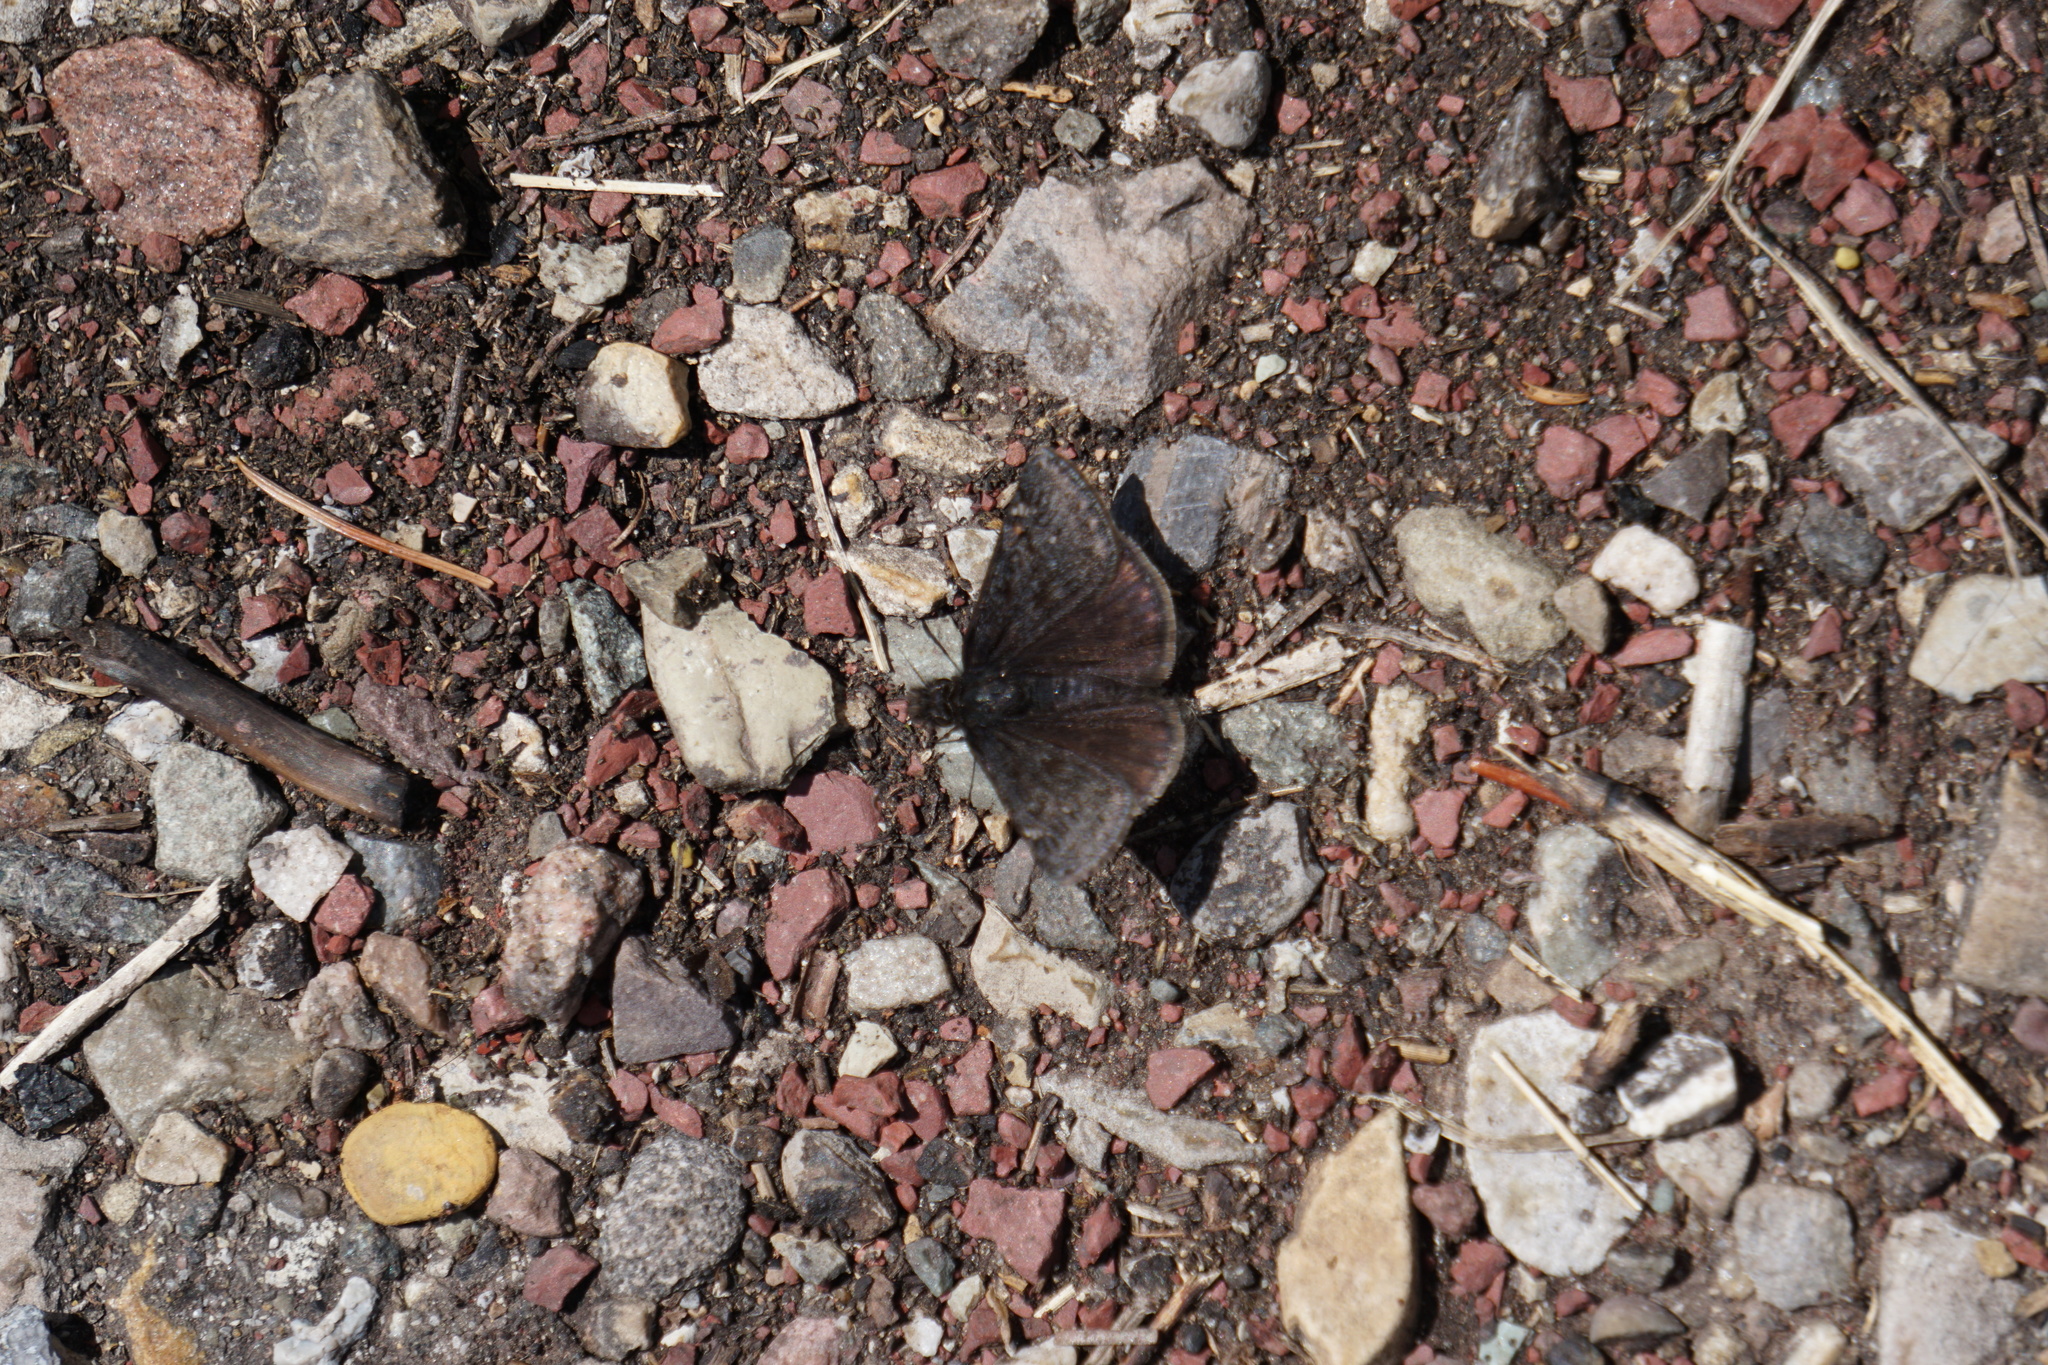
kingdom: Animalia
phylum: Arthropoda
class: Insecta
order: Lepidoptera
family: Hesperiidae
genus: Erynnis
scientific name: Erynnis persius
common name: Persius duskywing
